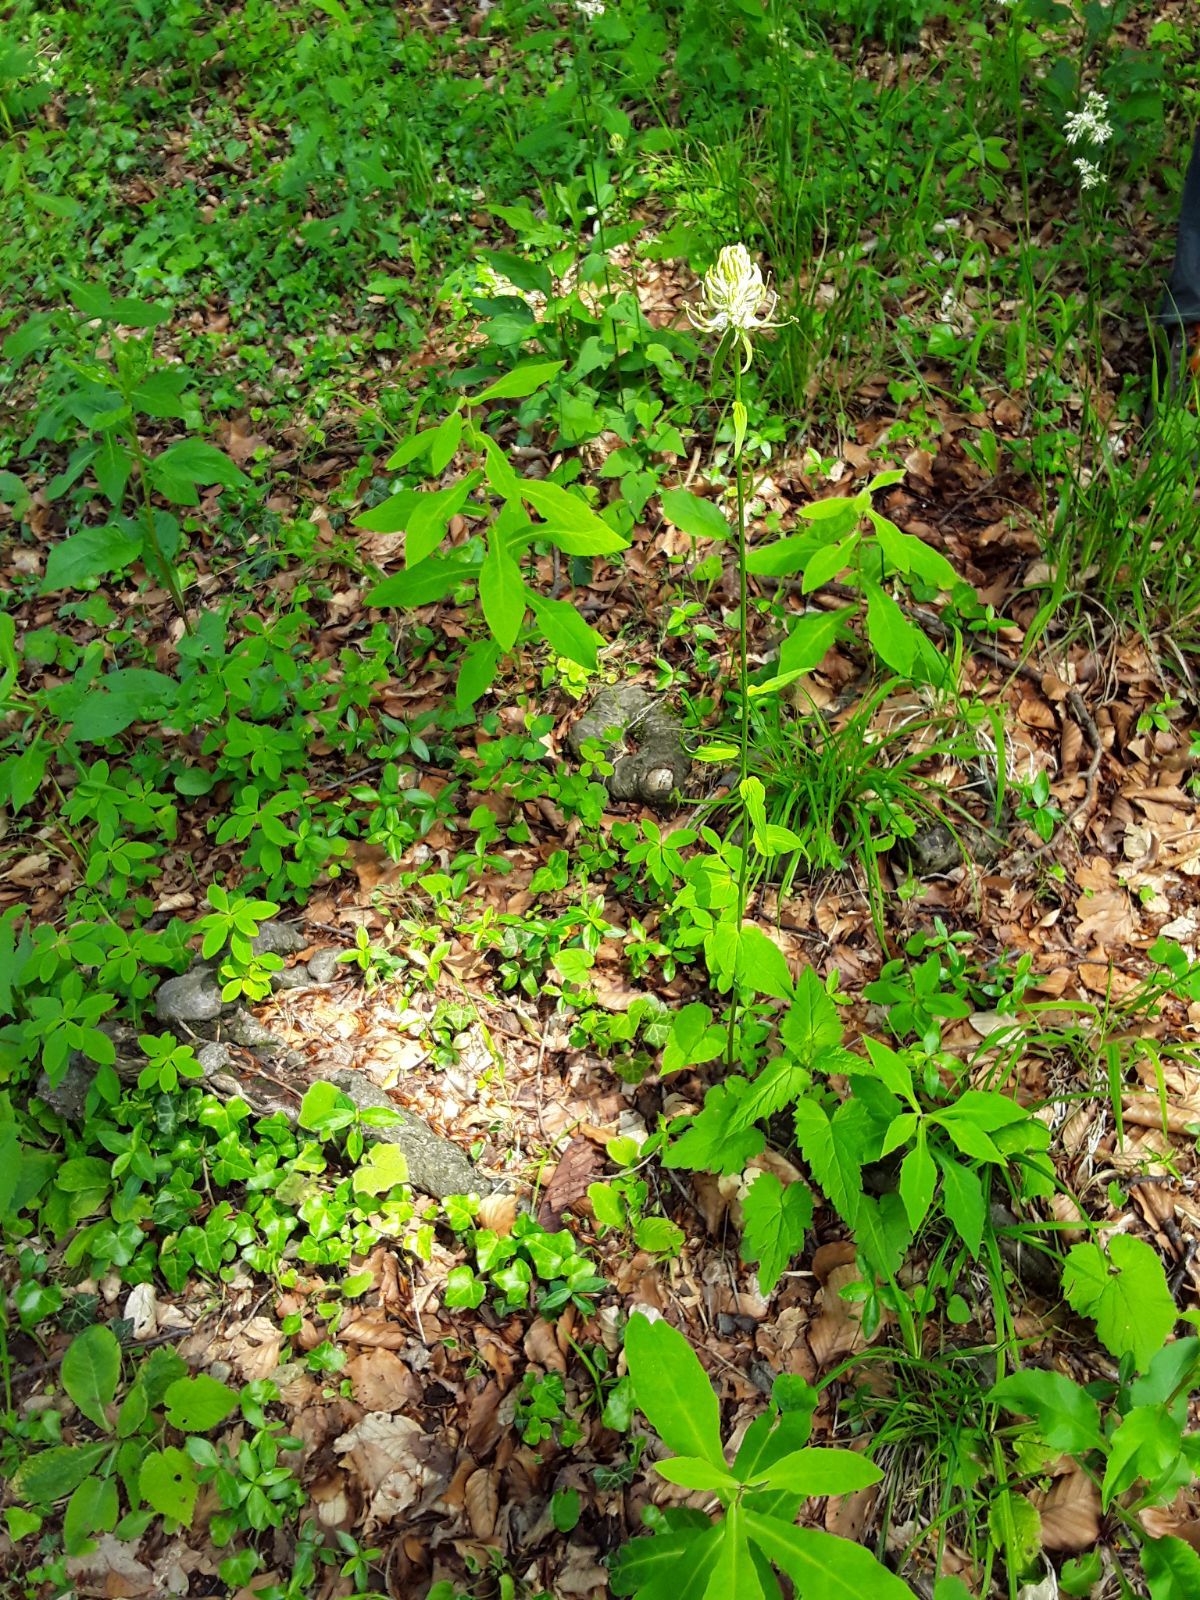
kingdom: Plantae
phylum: Tracheophyta
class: Magnoliopsida
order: Asterales
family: Campanulaceae
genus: Phyteuma
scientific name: Phyteuma spicatum
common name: Spiked rampion
